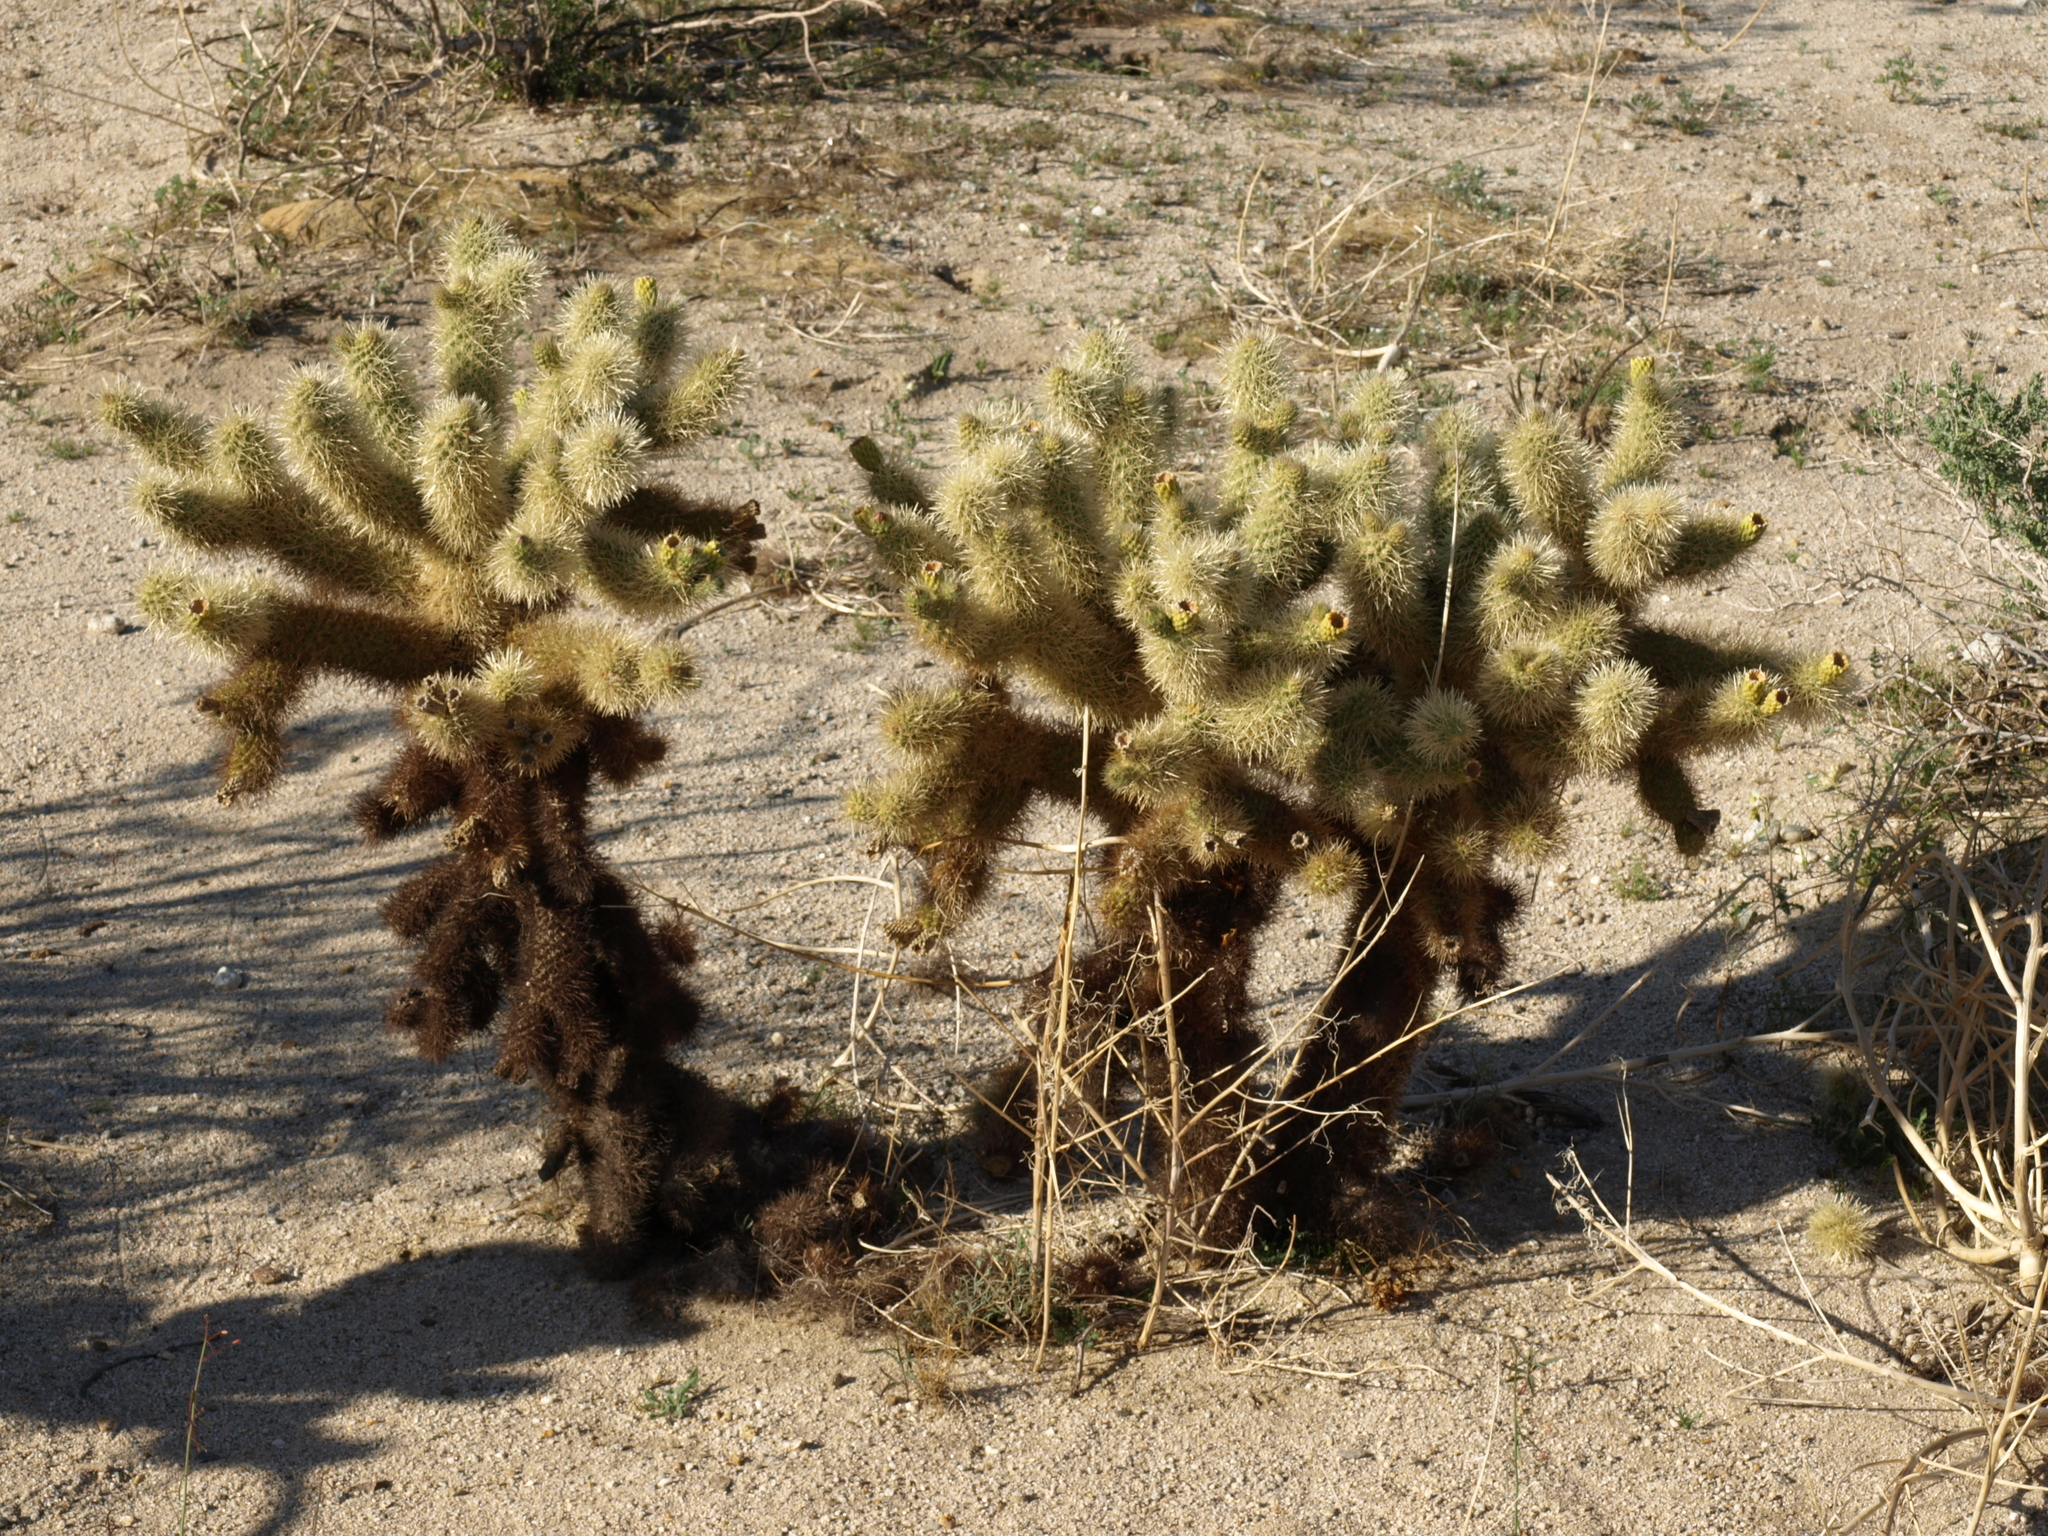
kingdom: Plantae
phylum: Tracheophyta
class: Magnoliopsida
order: Caryophyllales
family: Cactaceae
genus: Cylindropuntia
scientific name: Cylindropuntia fosbergii
